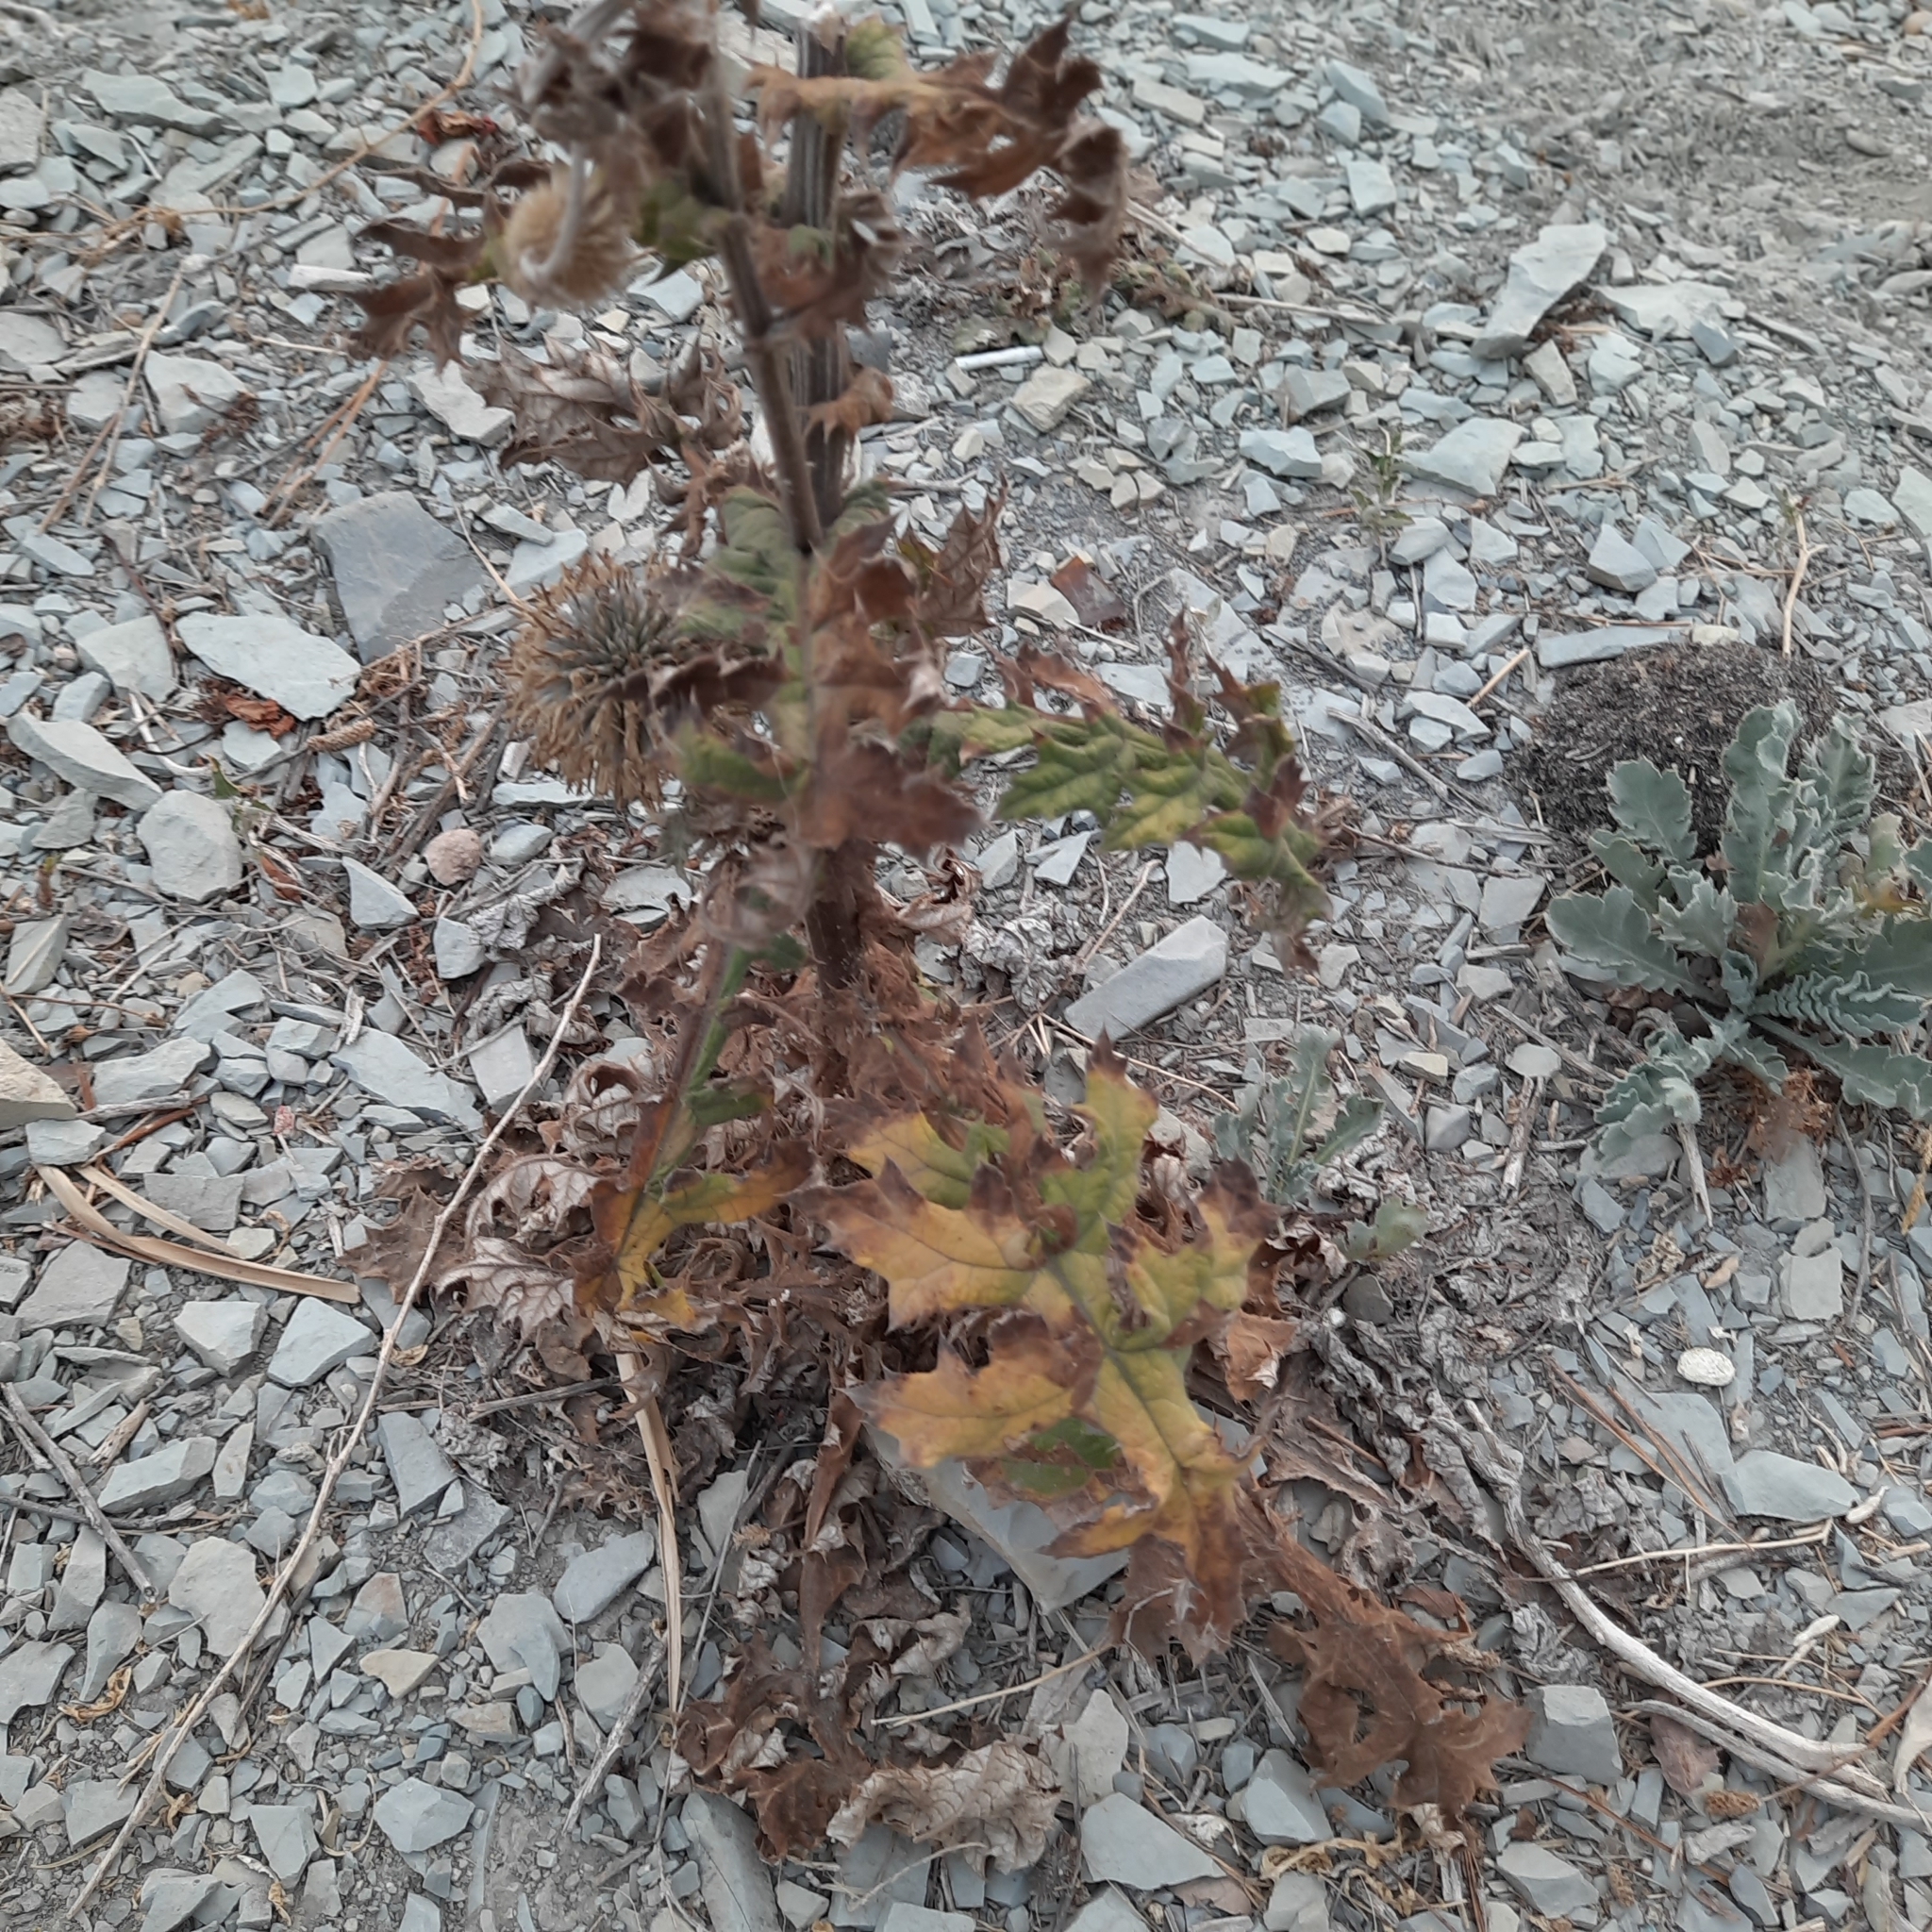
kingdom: Plantae
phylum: Tracheophyta
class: Magnoliopsida
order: Asterales
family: Asteraceae
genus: Echinops
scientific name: Echinops sphaerocephalus
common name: Glandular globe-thistle
